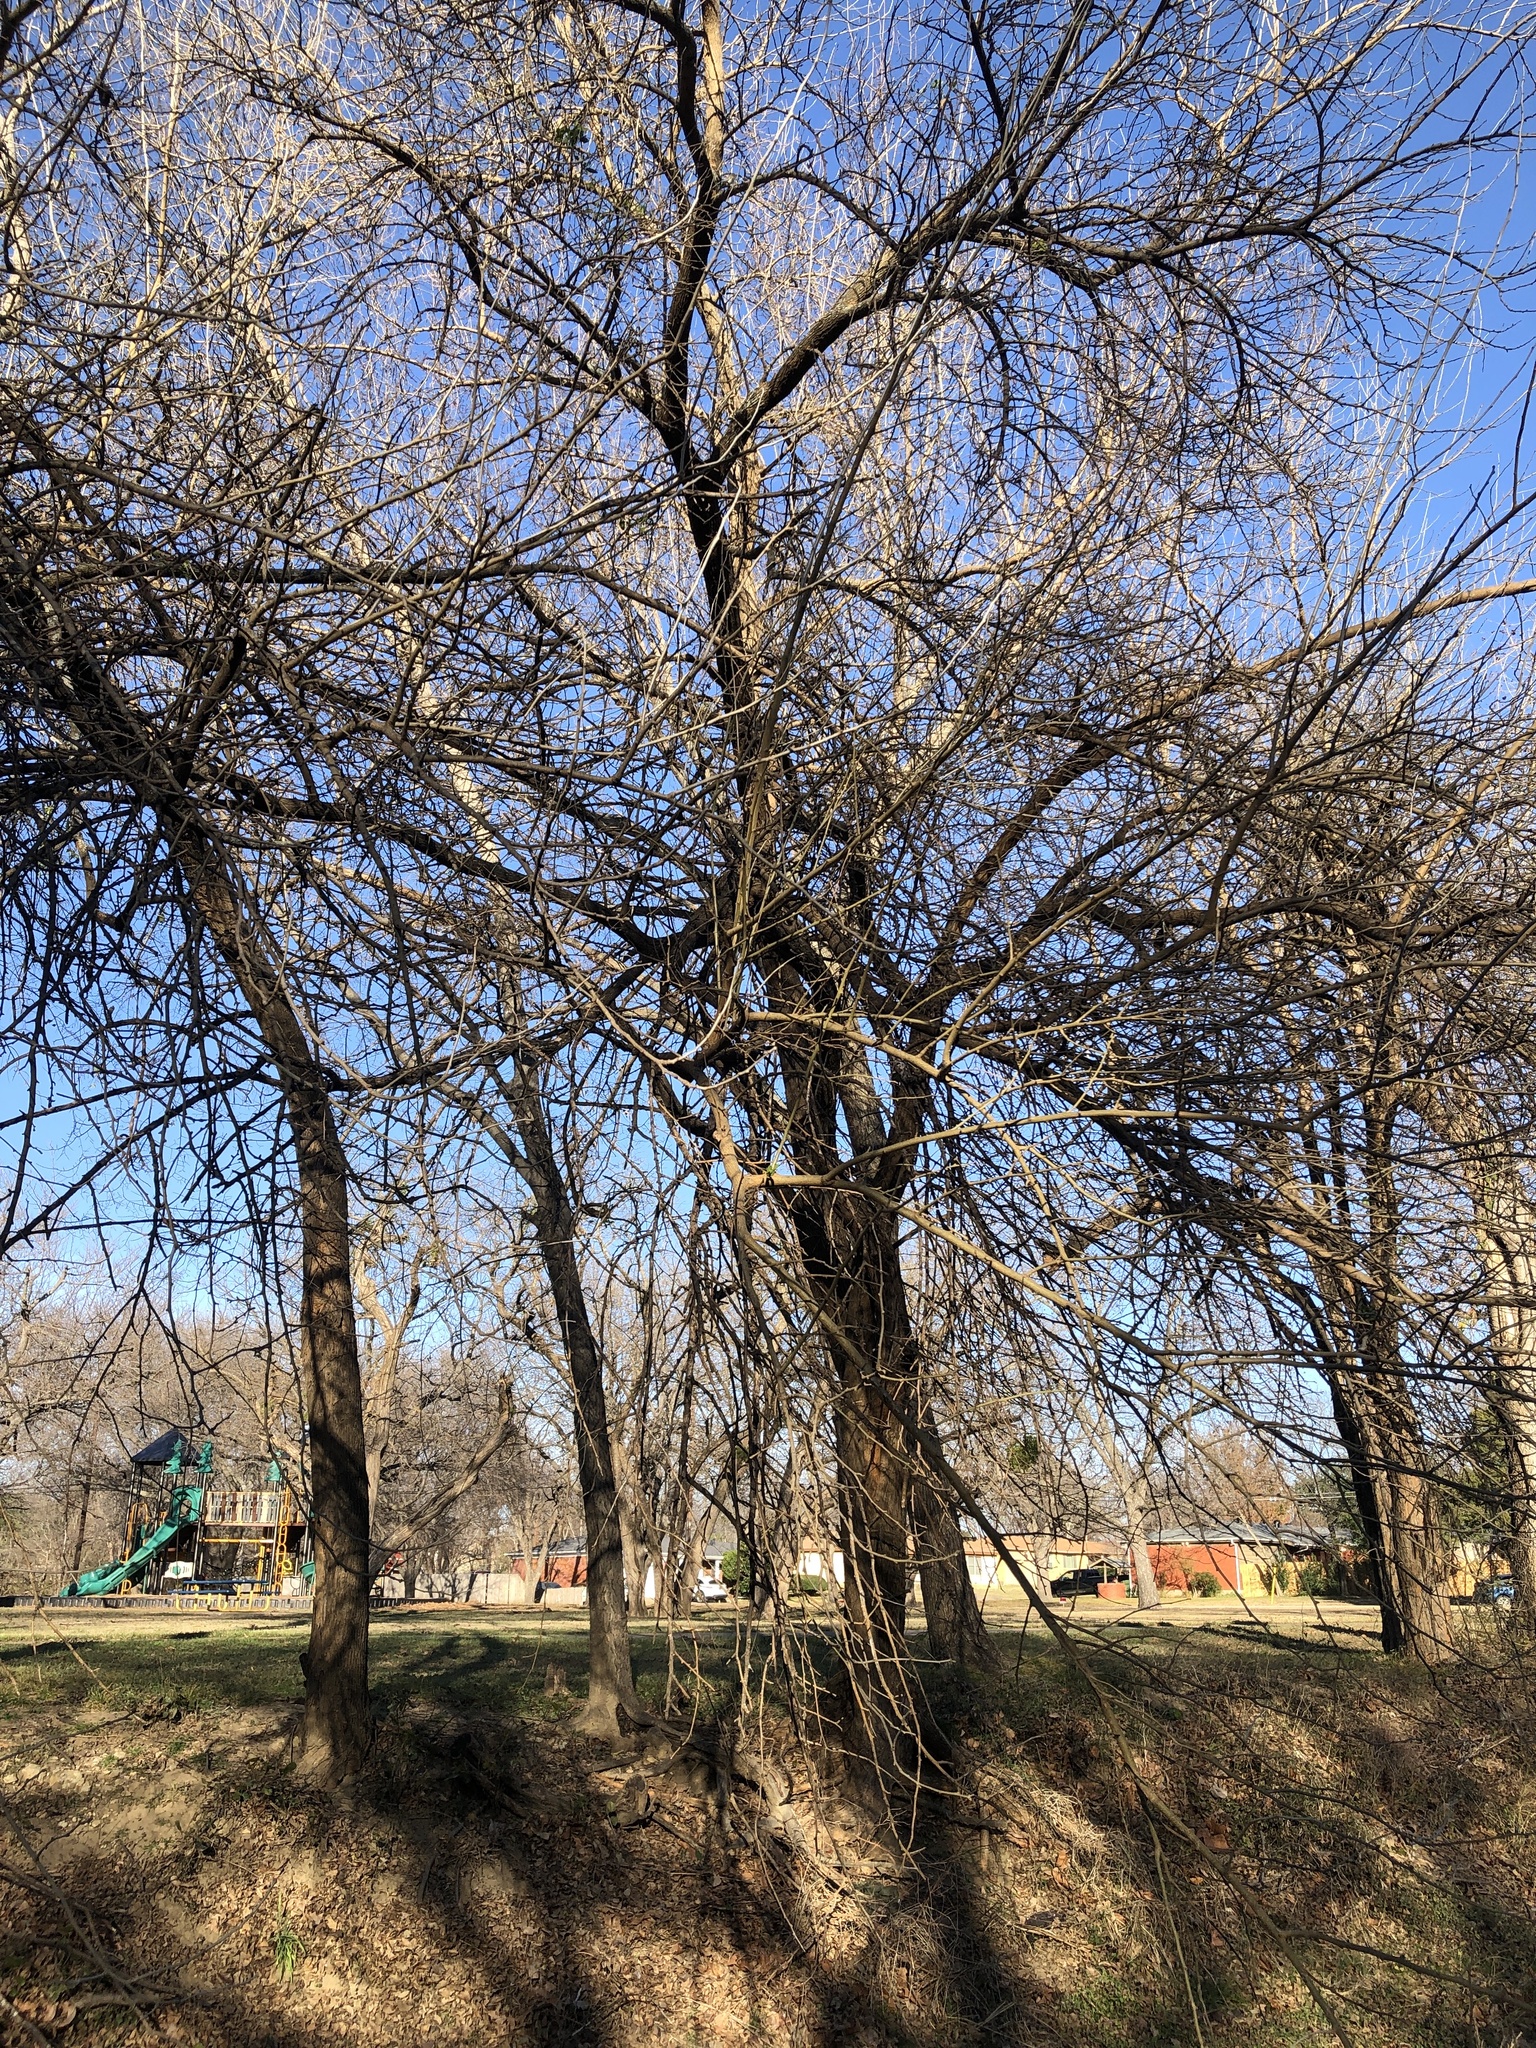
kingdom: Plantae
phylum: Tracheophyta
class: Magnoliopsida
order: Rosales
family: Moraceae
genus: Maclura
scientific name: Maclura pomifera
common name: Osage-orange
